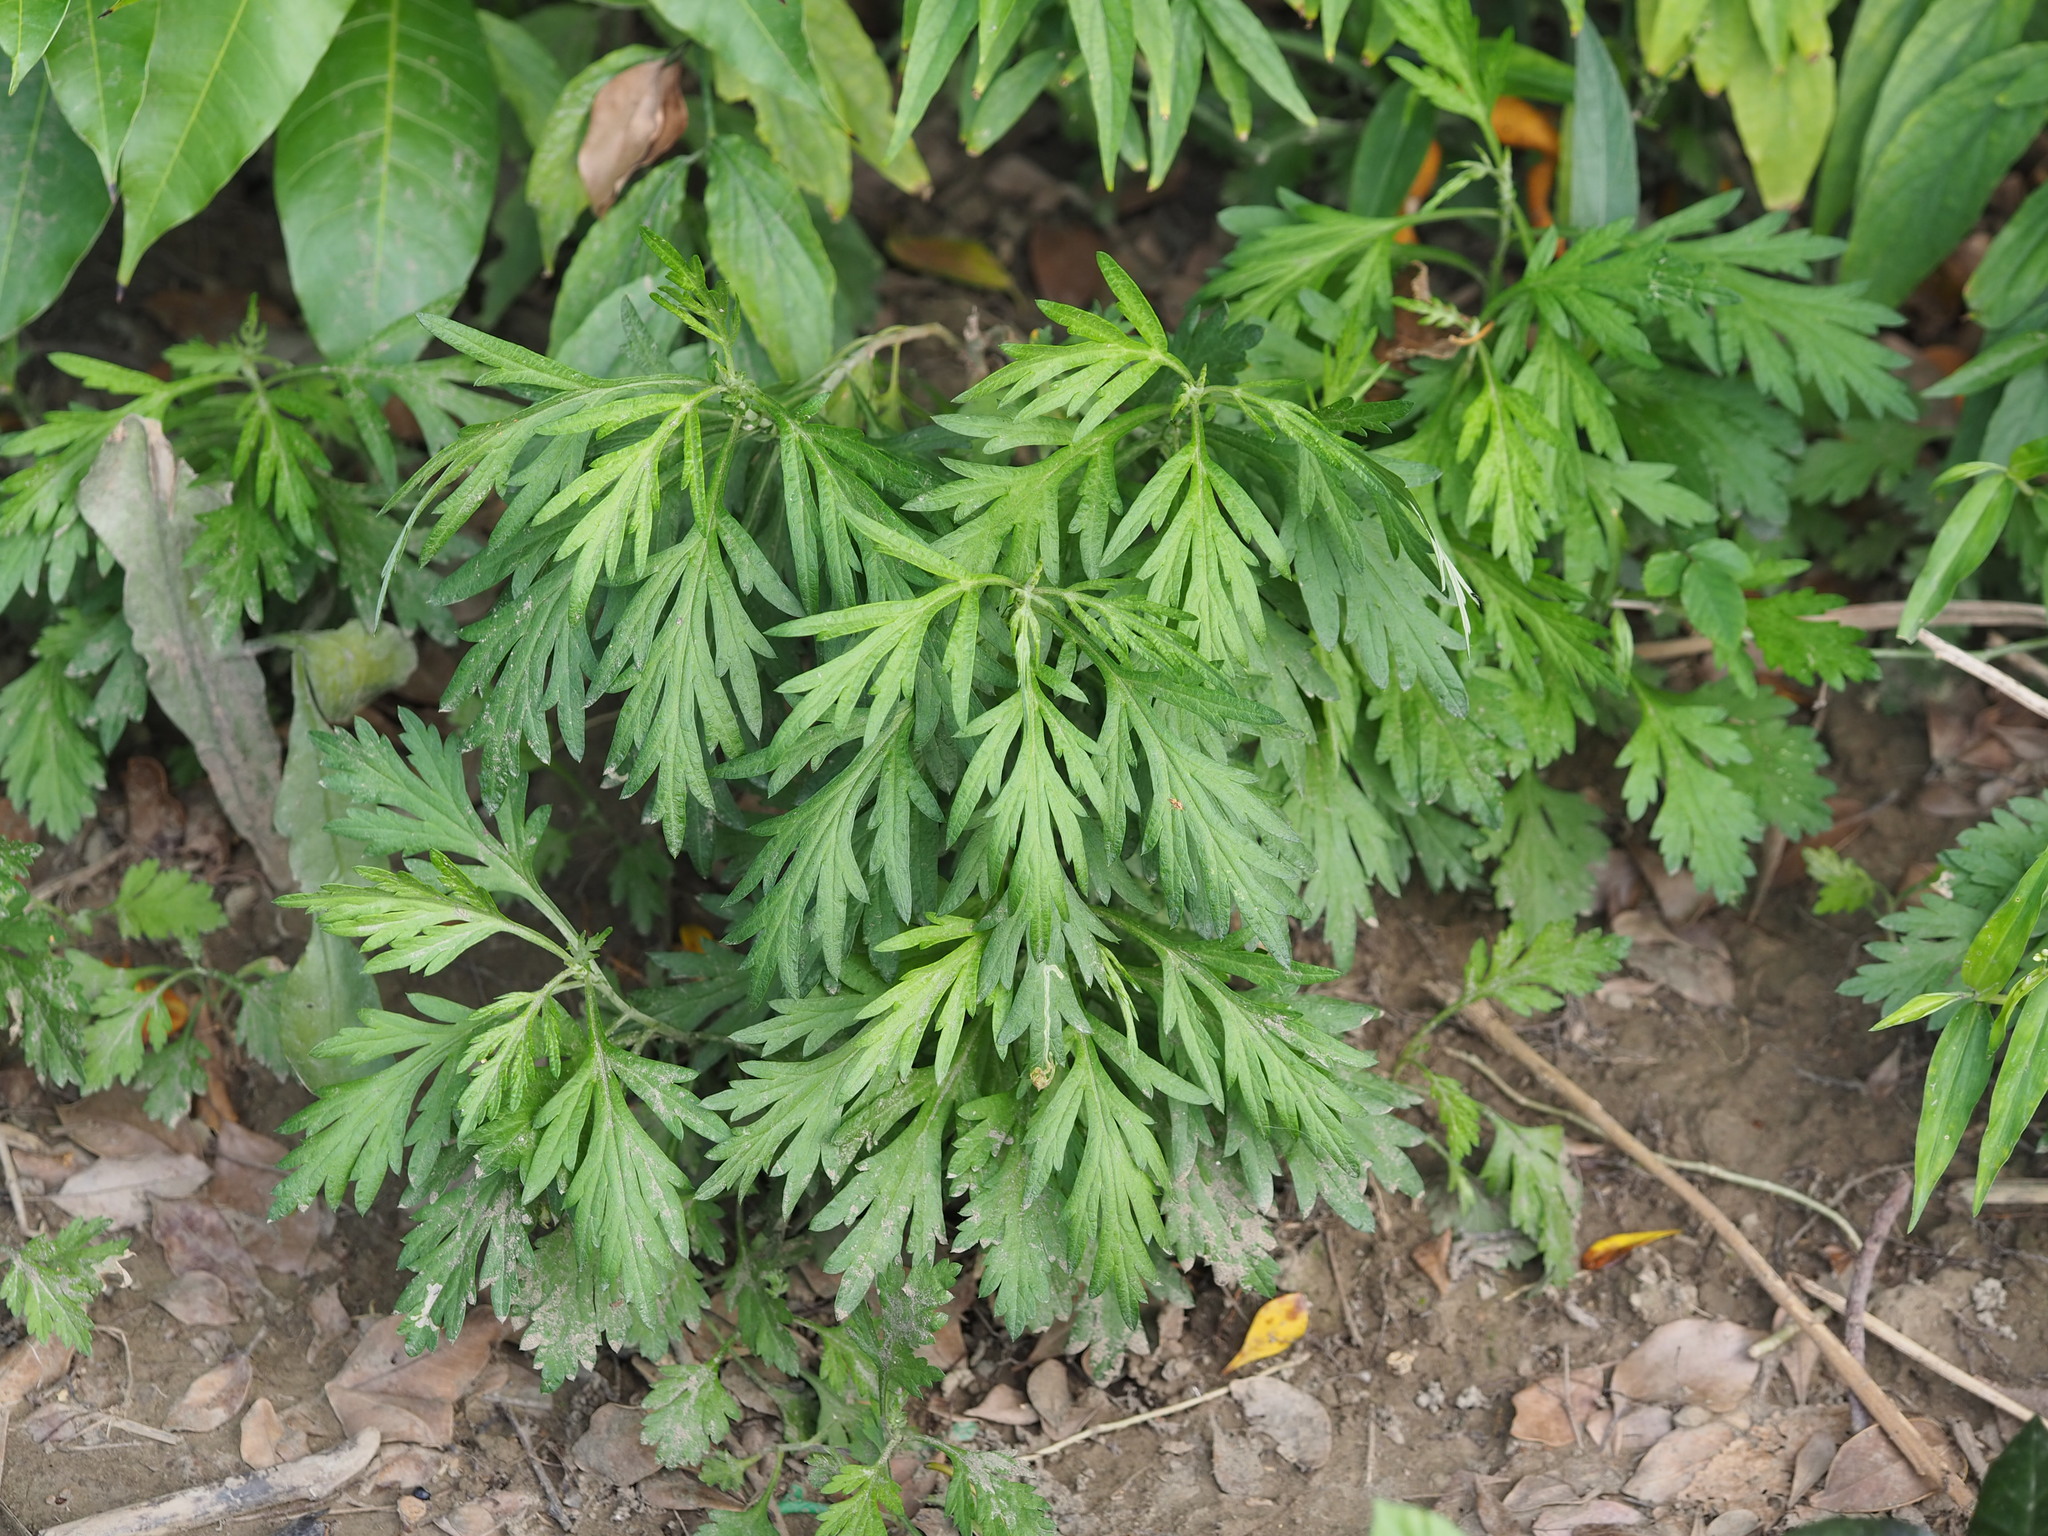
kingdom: Plantae
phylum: Tracheophyta
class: Magnoliopsida
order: Asterales
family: Asteraceae
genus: Artemisia
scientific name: Artemisia indica
